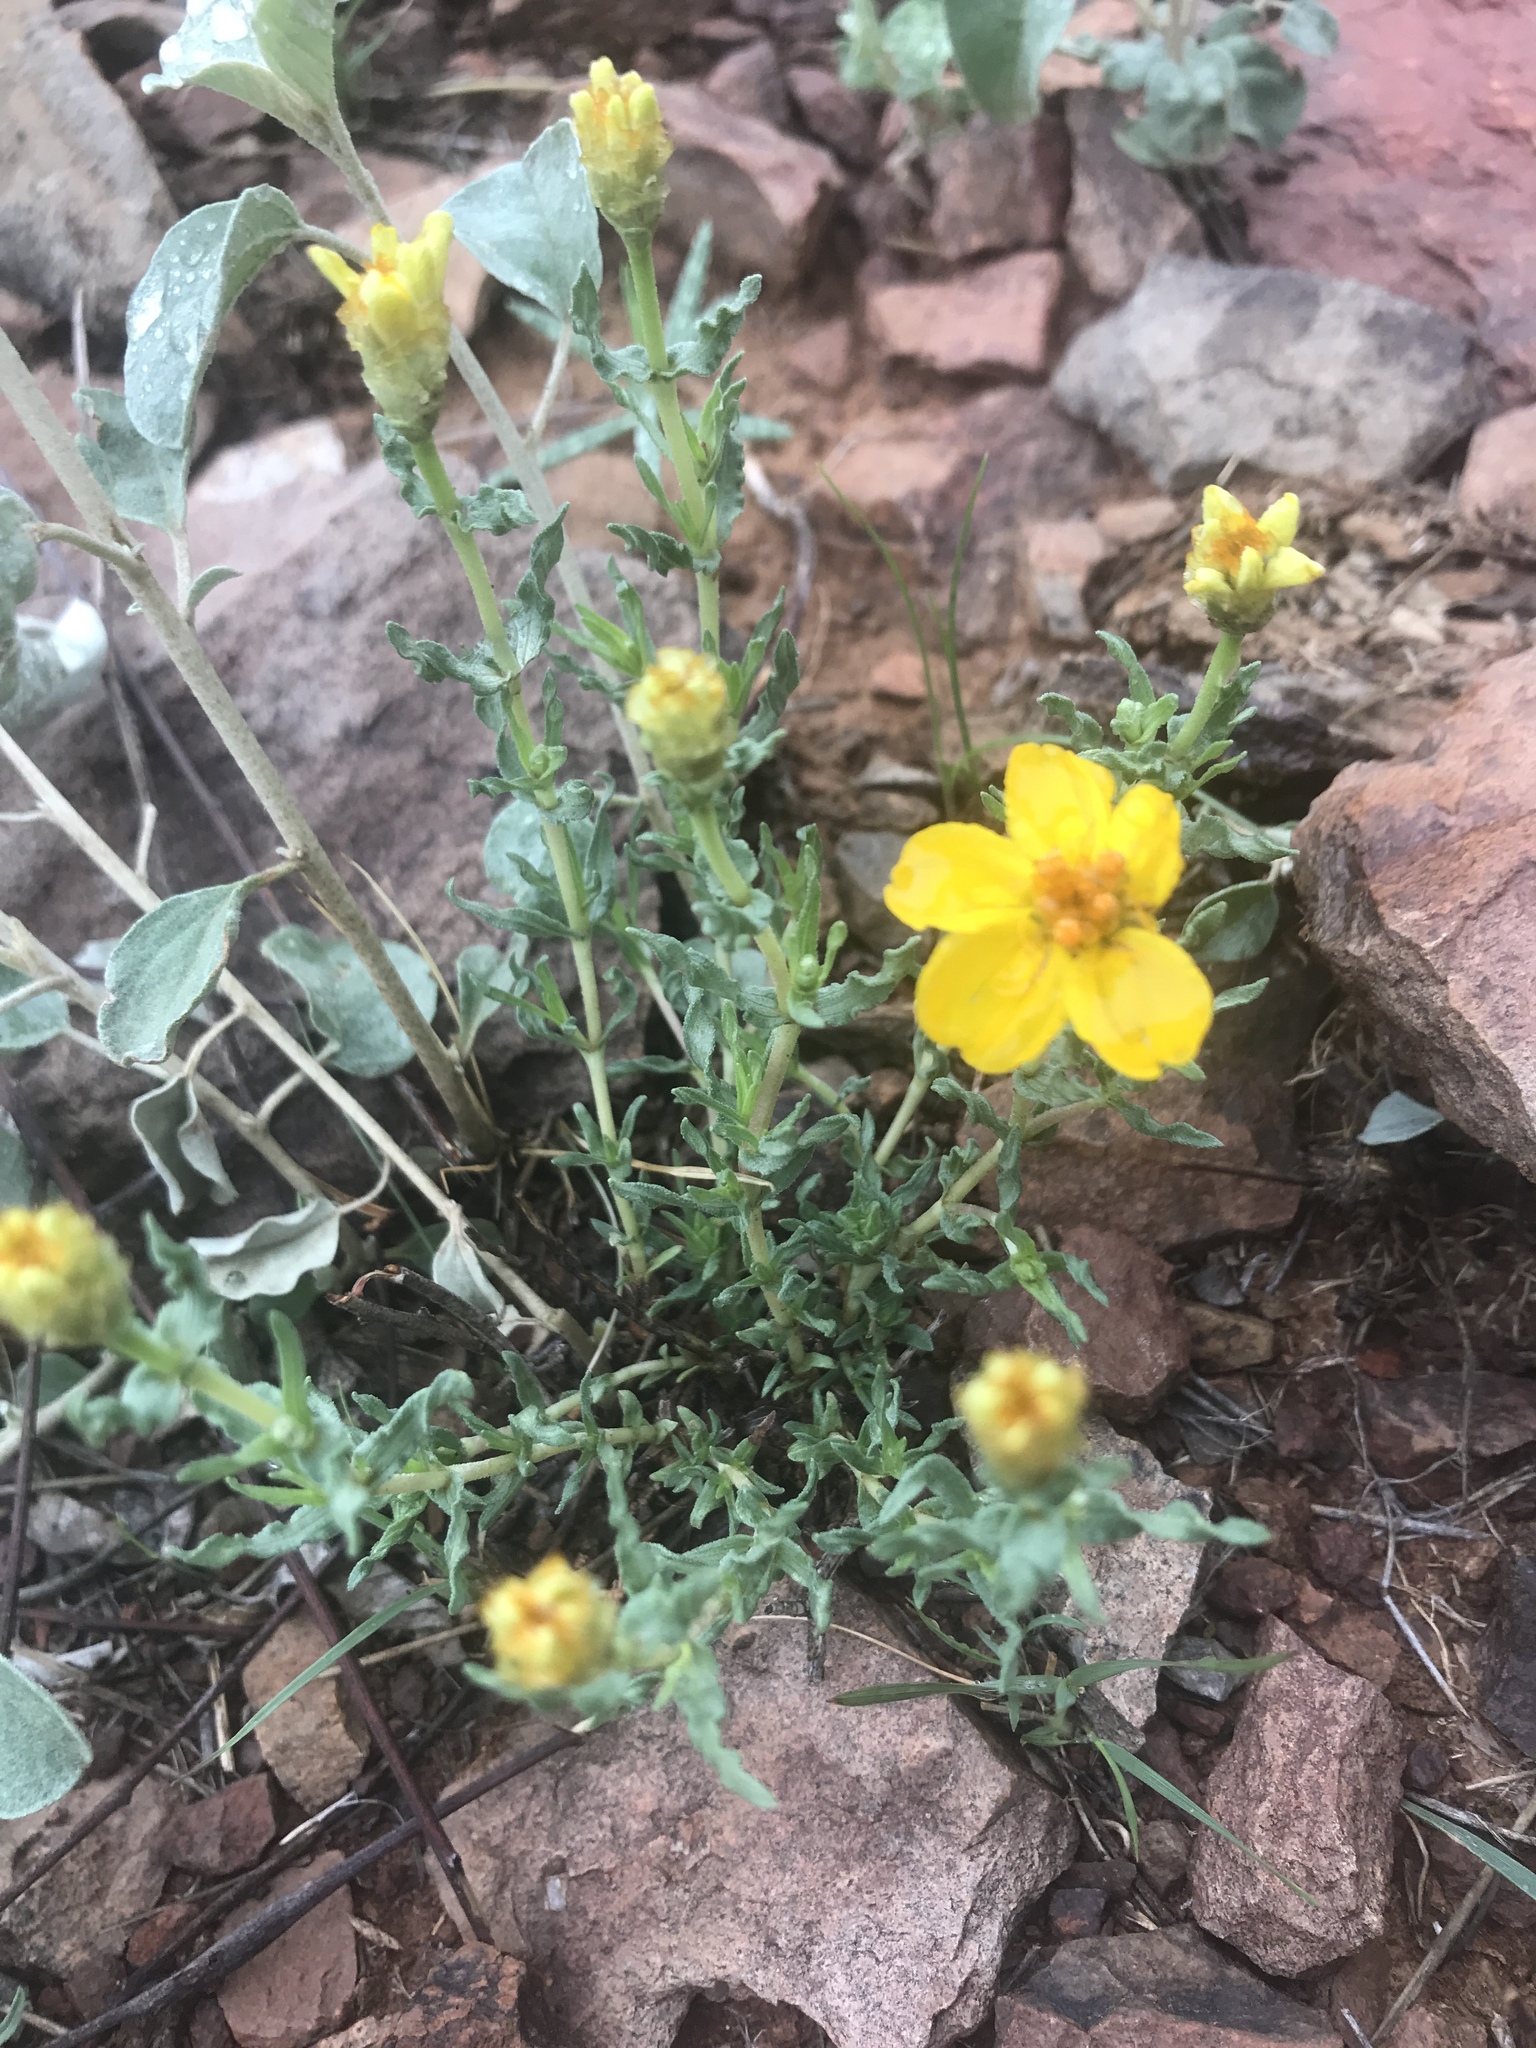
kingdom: Plantae
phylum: Tracheophyta
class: Magnoliopsida
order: Asterales
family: Asteraceae
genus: Zinnia
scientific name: Zinnia grandiflora
